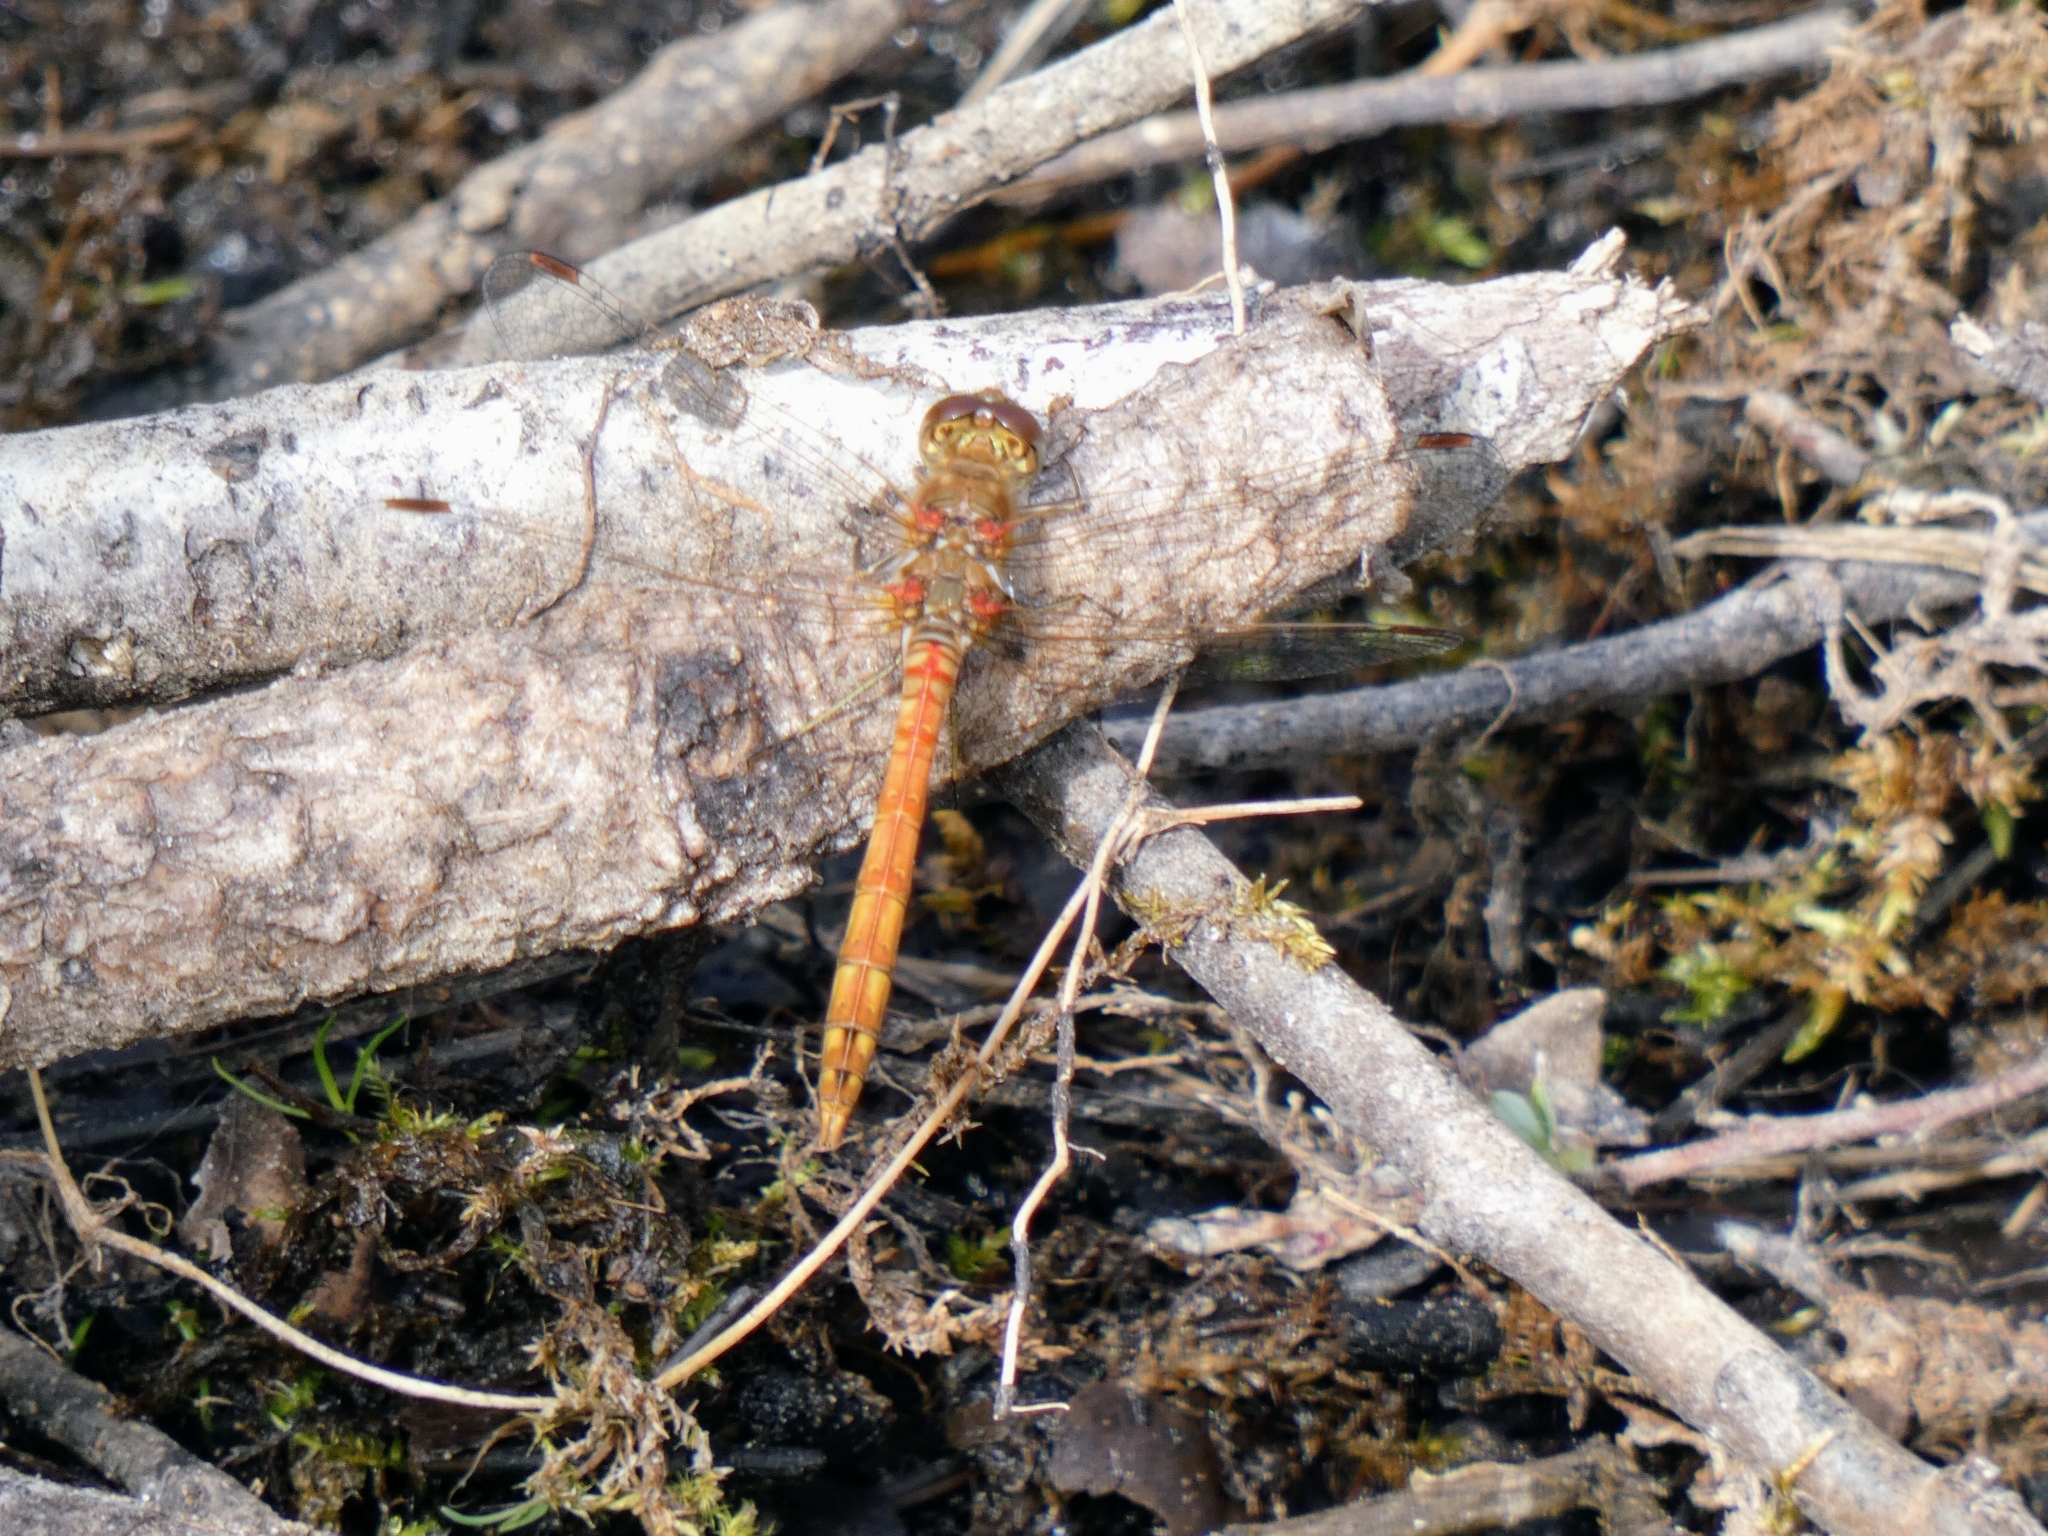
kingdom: Animalia
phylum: Arthropoda
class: Insecta
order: Odonata
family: Libellulidae
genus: Sympetrum
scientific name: Sympetrum striolatum
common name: Common darter
